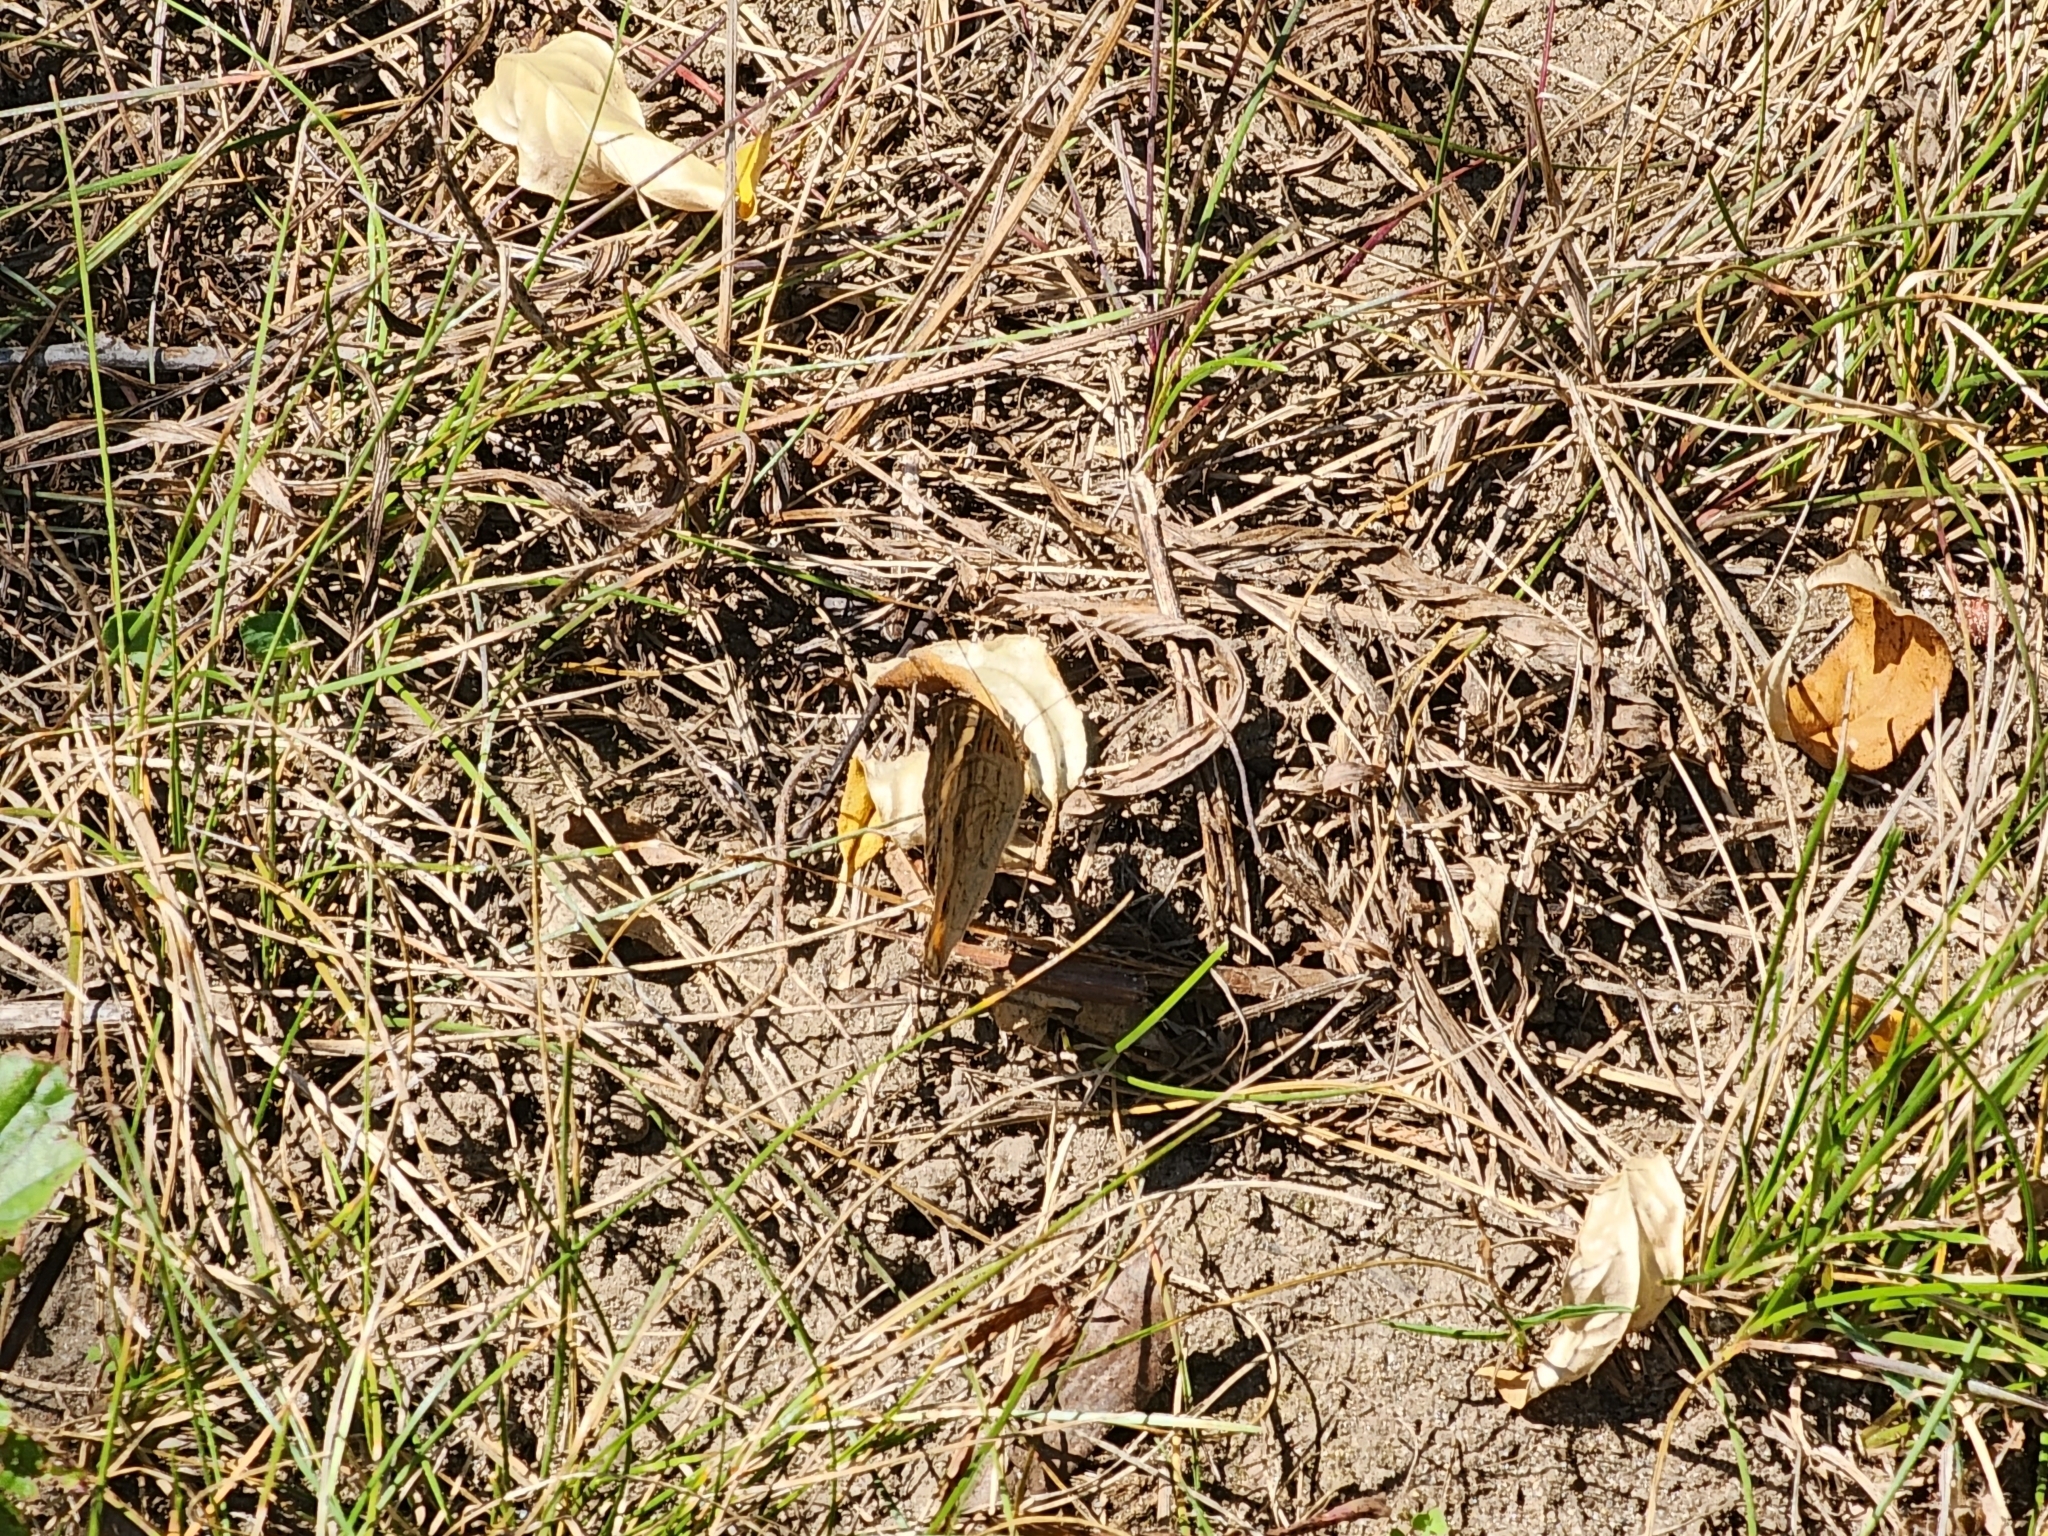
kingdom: Animalia
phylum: Arthropoda
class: Insecta
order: Lepidoptera
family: Nymphalidae
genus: Junonia
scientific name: Junonia coenia
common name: Common buckeye
